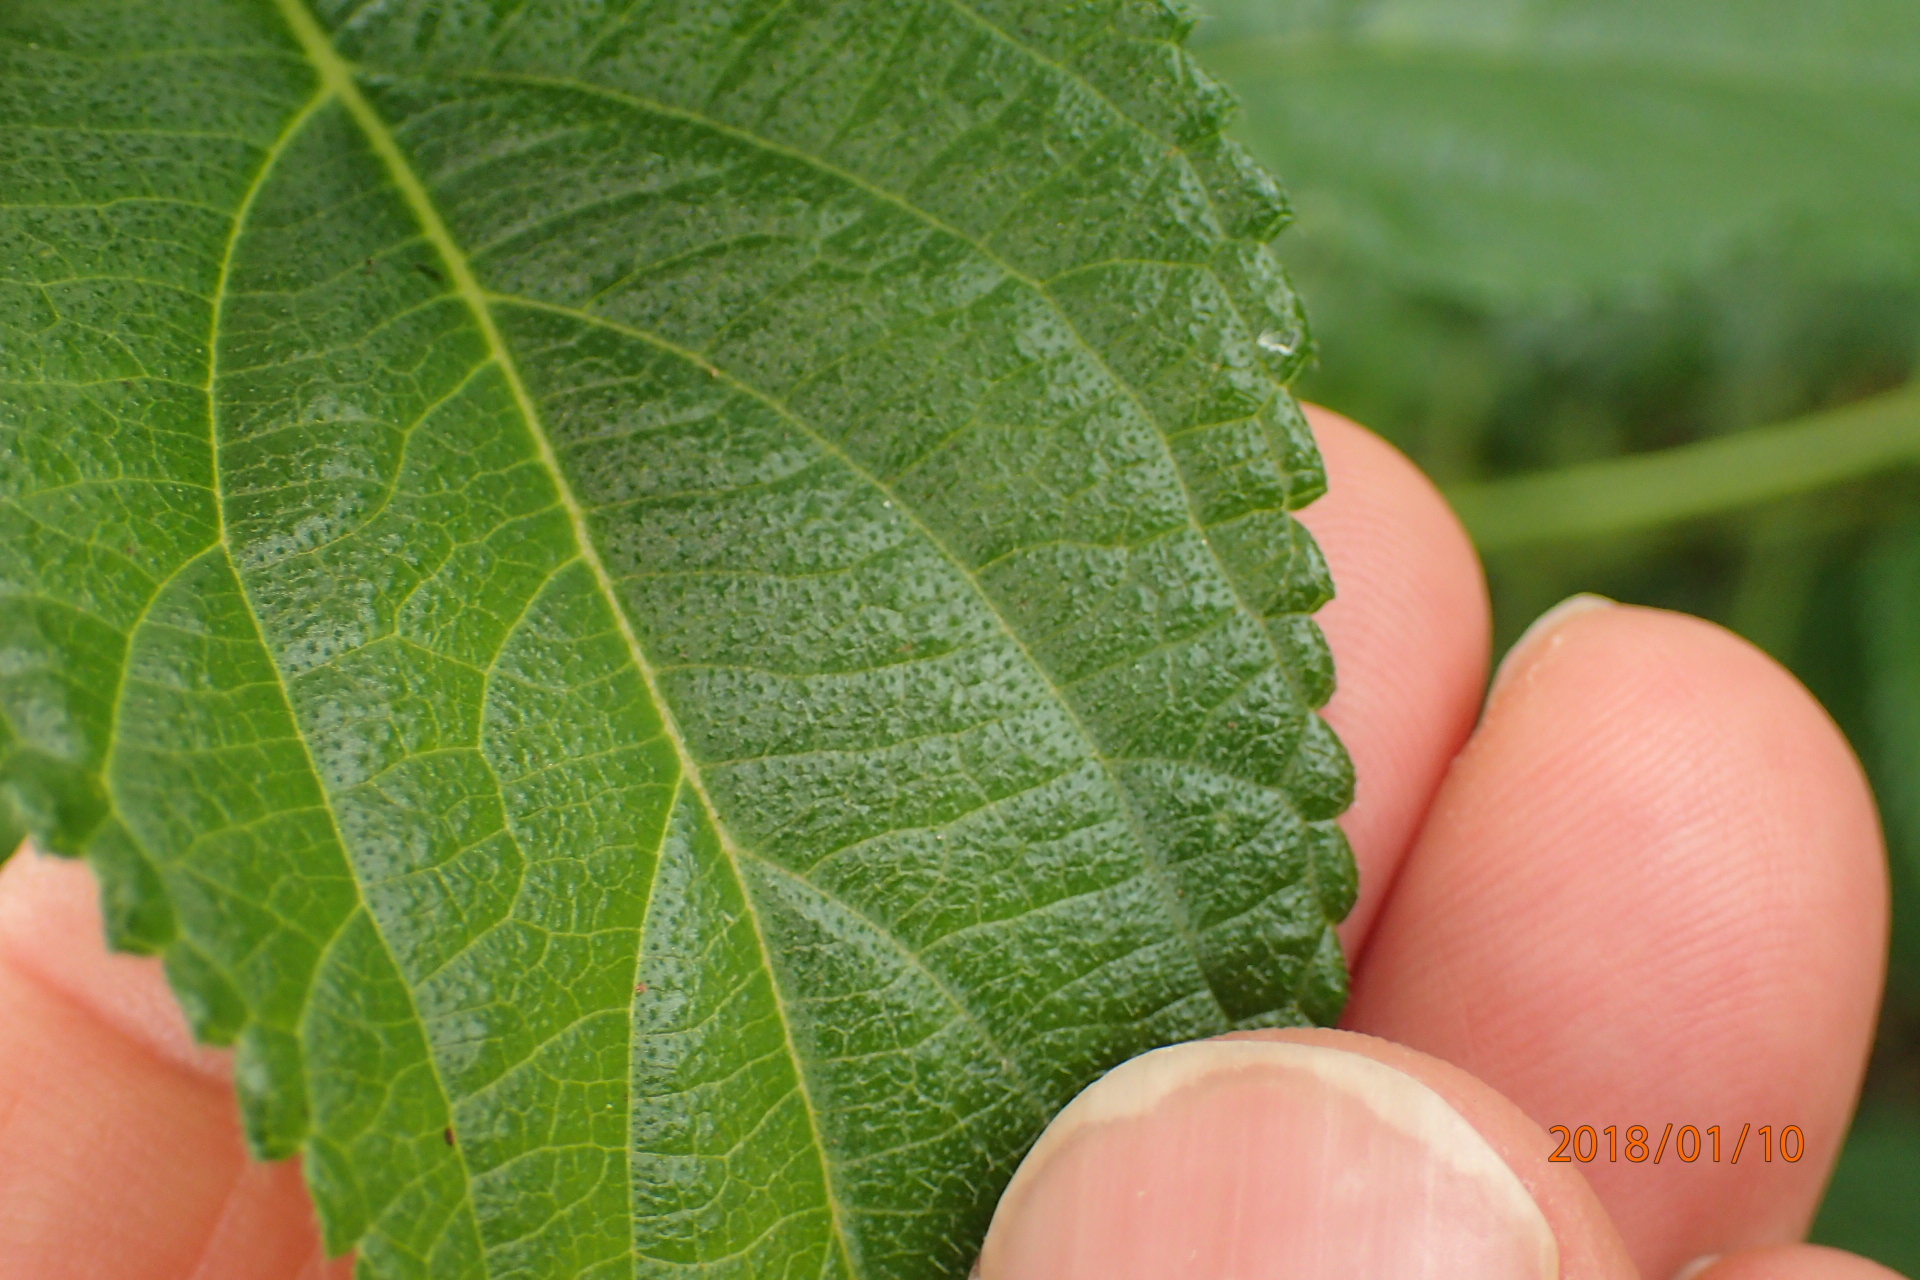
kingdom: Plantae
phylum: Tracheophyta
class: Magnoliopsida
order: Lamiales
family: Verbenaceae
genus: Lantana
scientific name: Lantana camara
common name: Lantana
